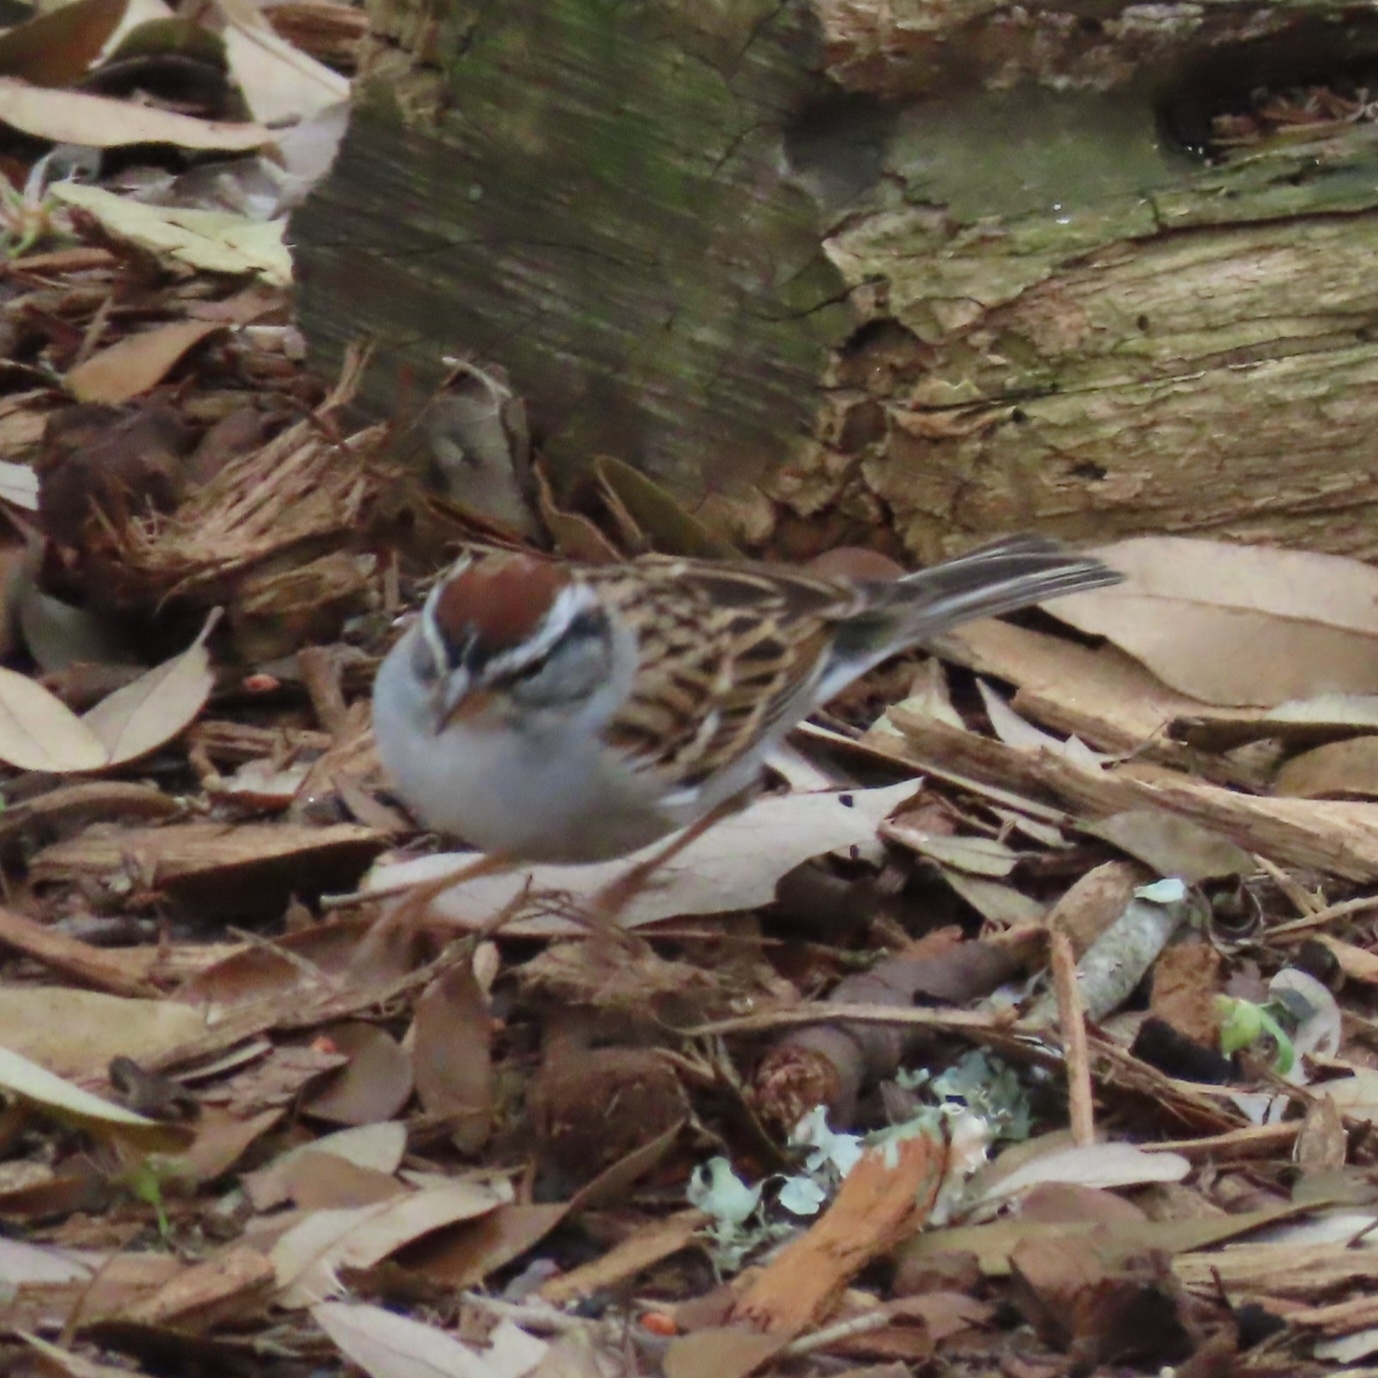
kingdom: Animalia
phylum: Chordata
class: Aves
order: Passeriformes
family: Passerellidae
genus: Spizella
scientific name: Spizella passerina
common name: Chipping sparrow
